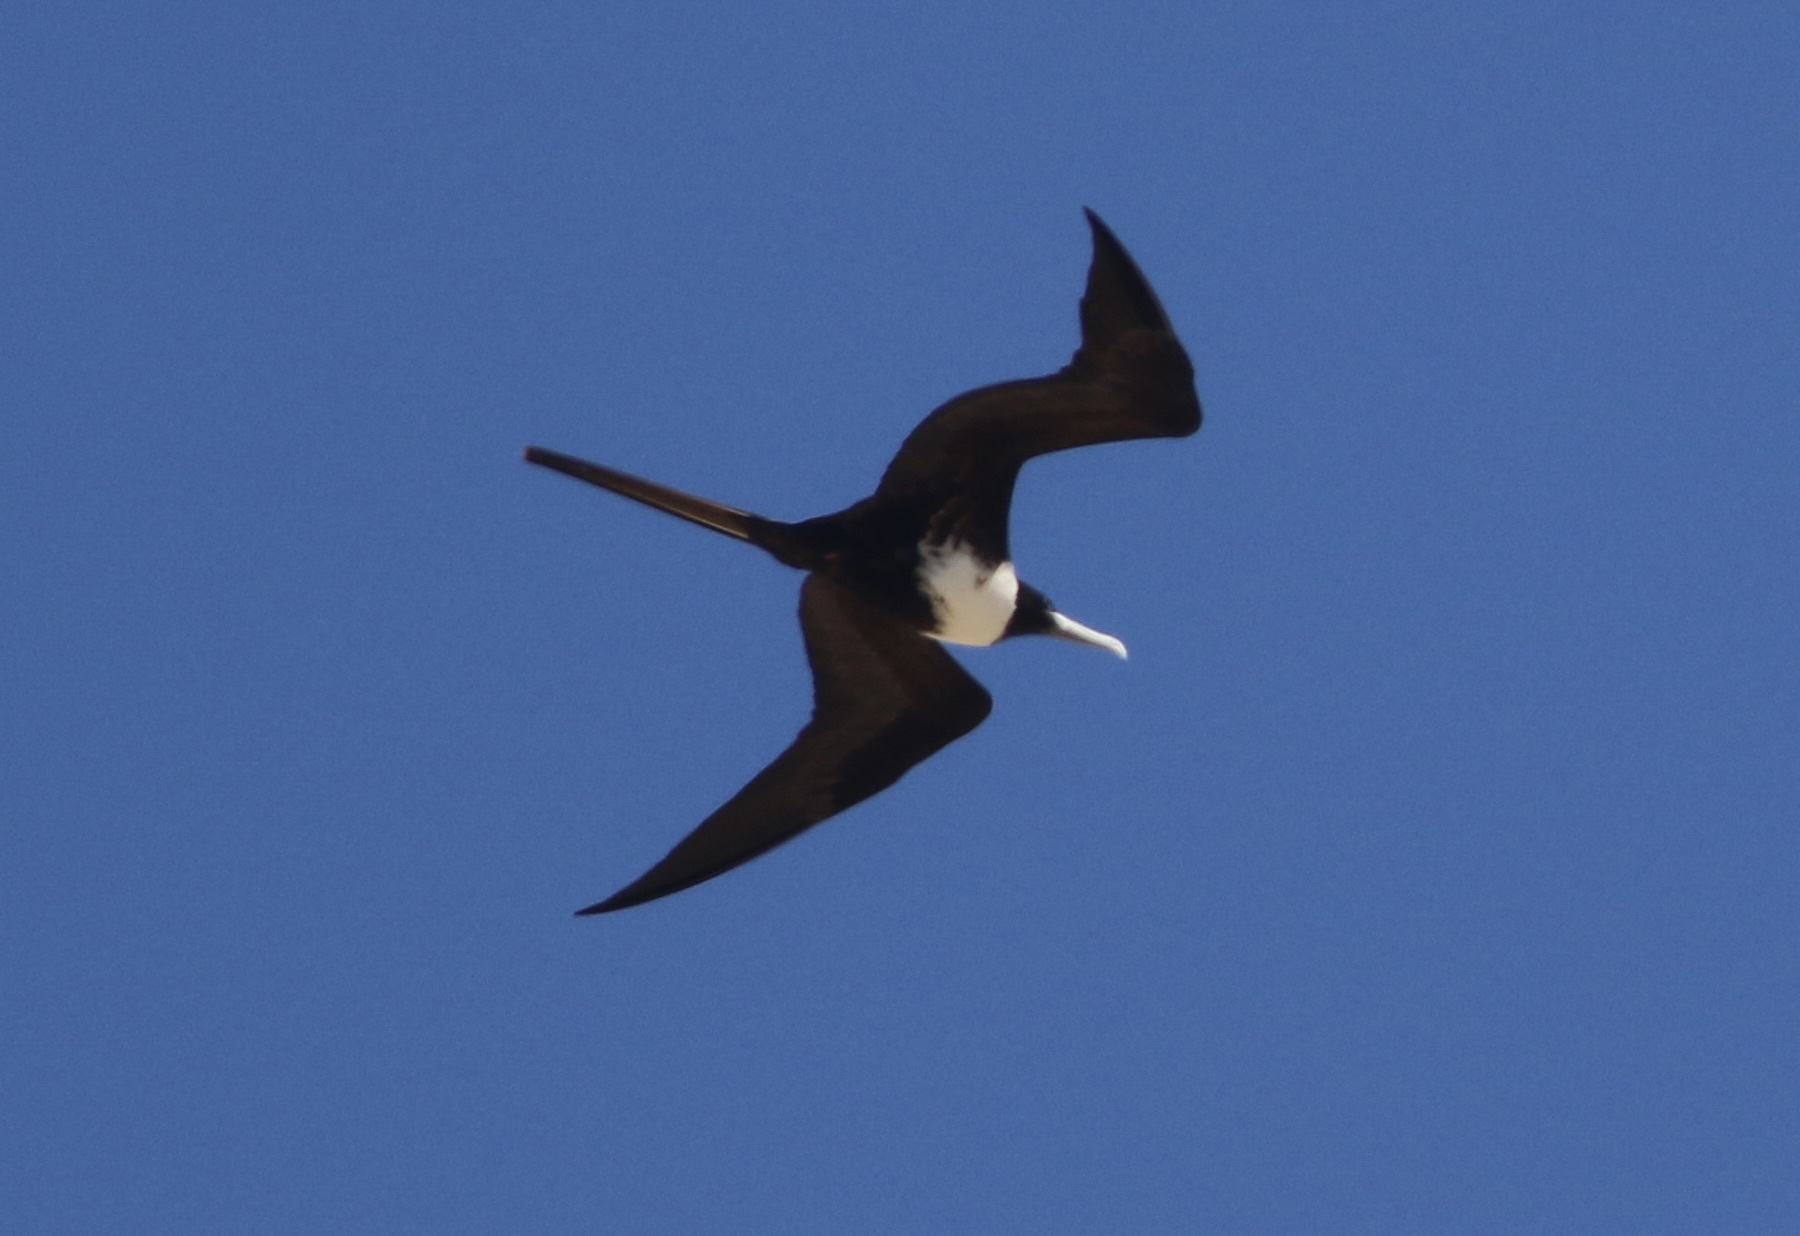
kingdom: Animalia
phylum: Chordata
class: Aves
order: Suliformes
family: Fregatidae
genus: Fregata
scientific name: Fregata magnificens
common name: Magnificent frigatebird
